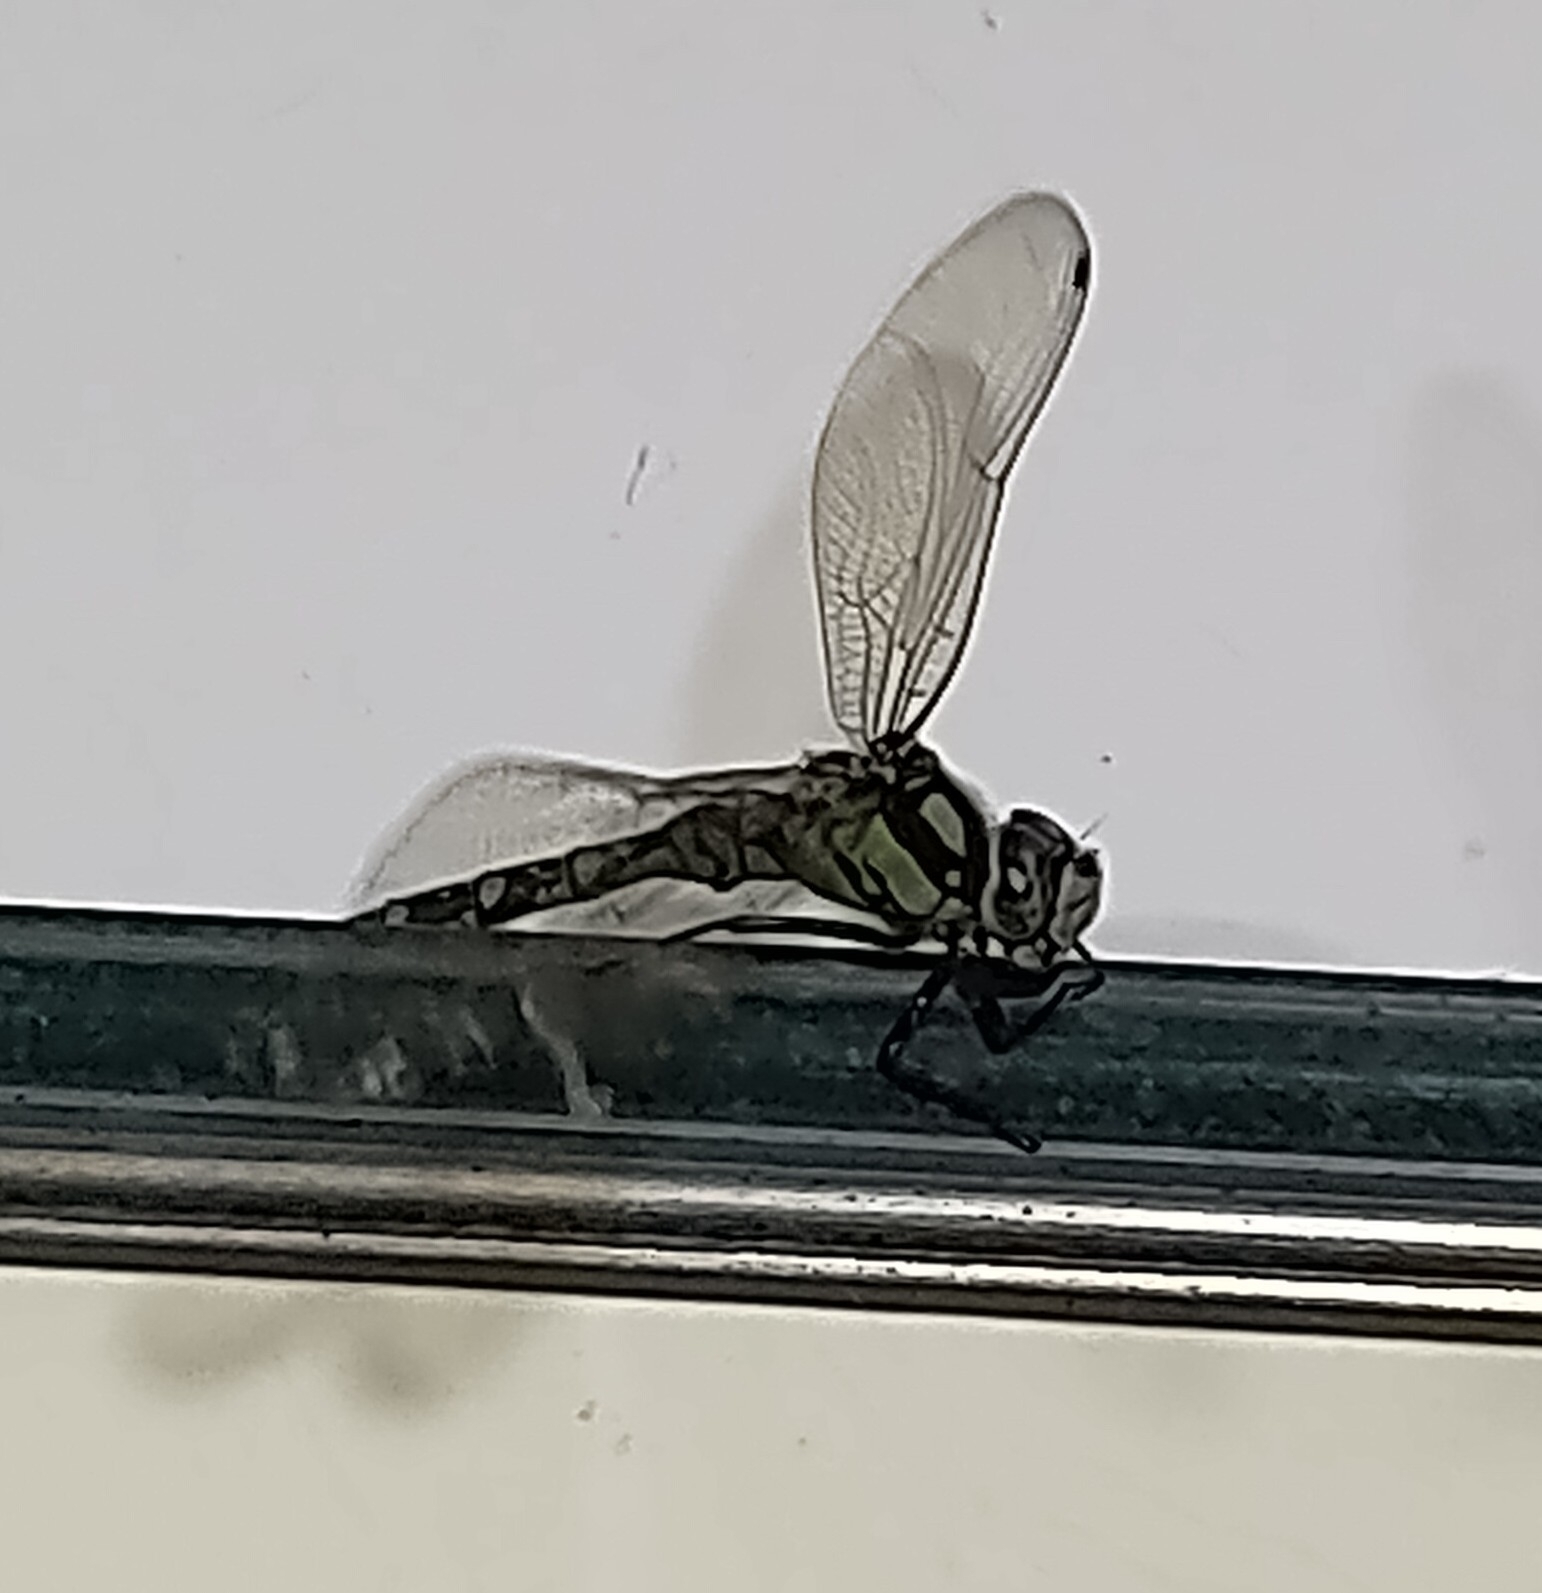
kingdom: Animalia
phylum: Arthropoda
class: Insecta
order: Odonata
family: Aeshnidae
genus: Aeshna
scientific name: Aeshna cyanea
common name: Southern hawker
